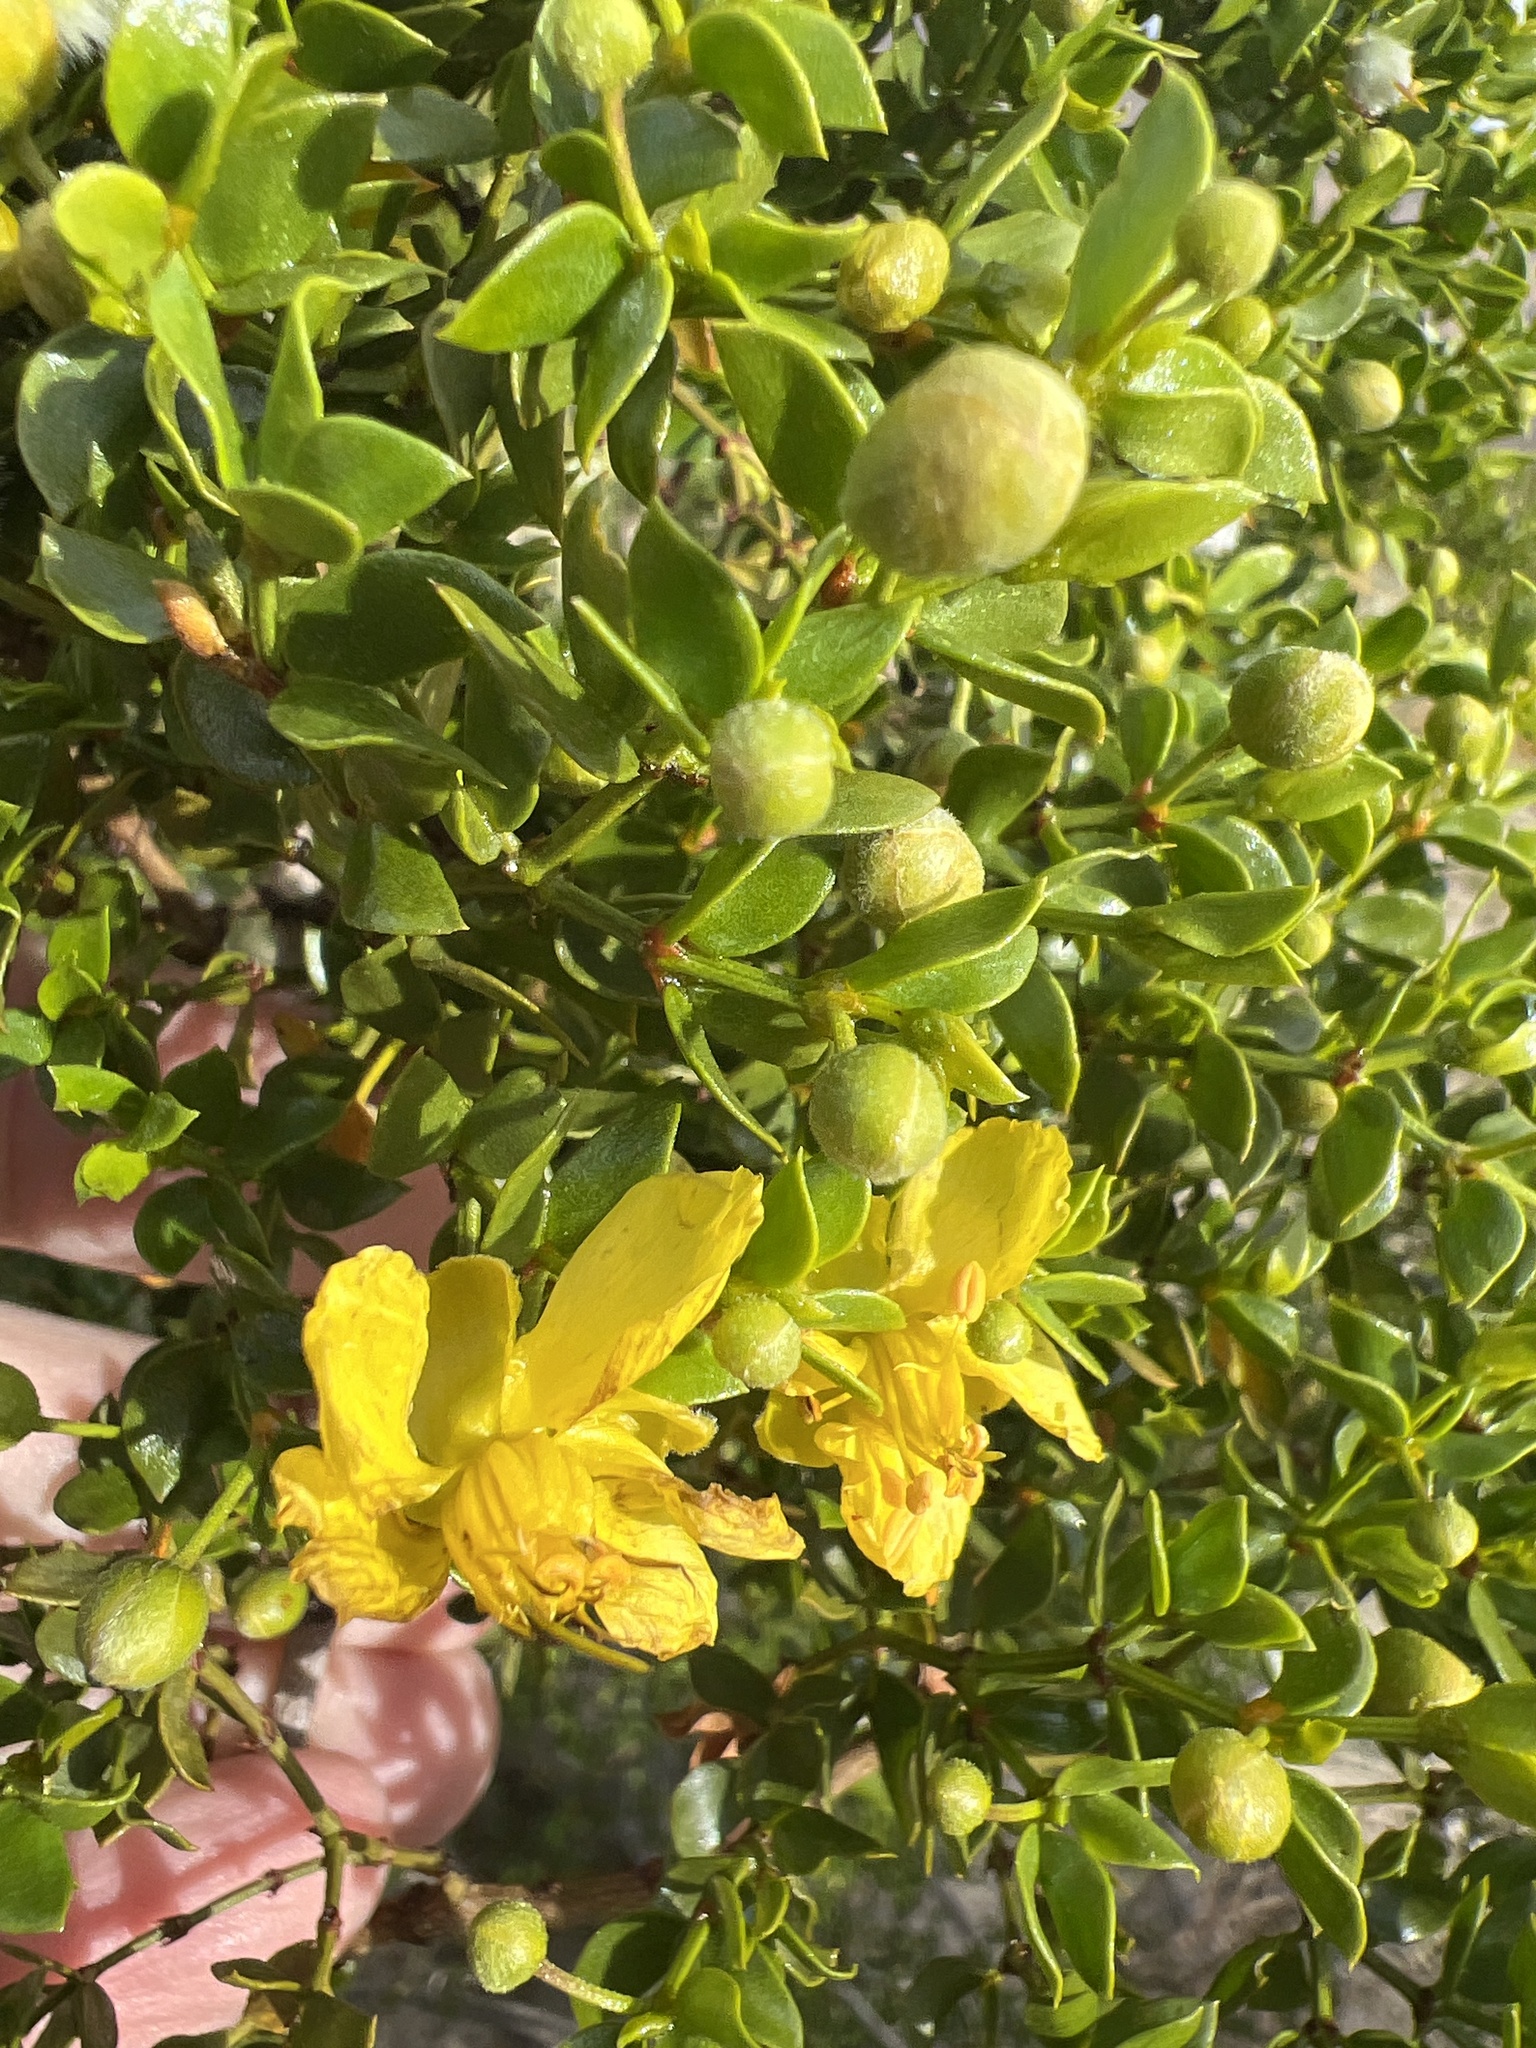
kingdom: Plantae
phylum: Tracheophyta
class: Magnoliopsida
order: Zygophyllales
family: Zygophyllaceae
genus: Larrea
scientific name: Larrea tridentata
